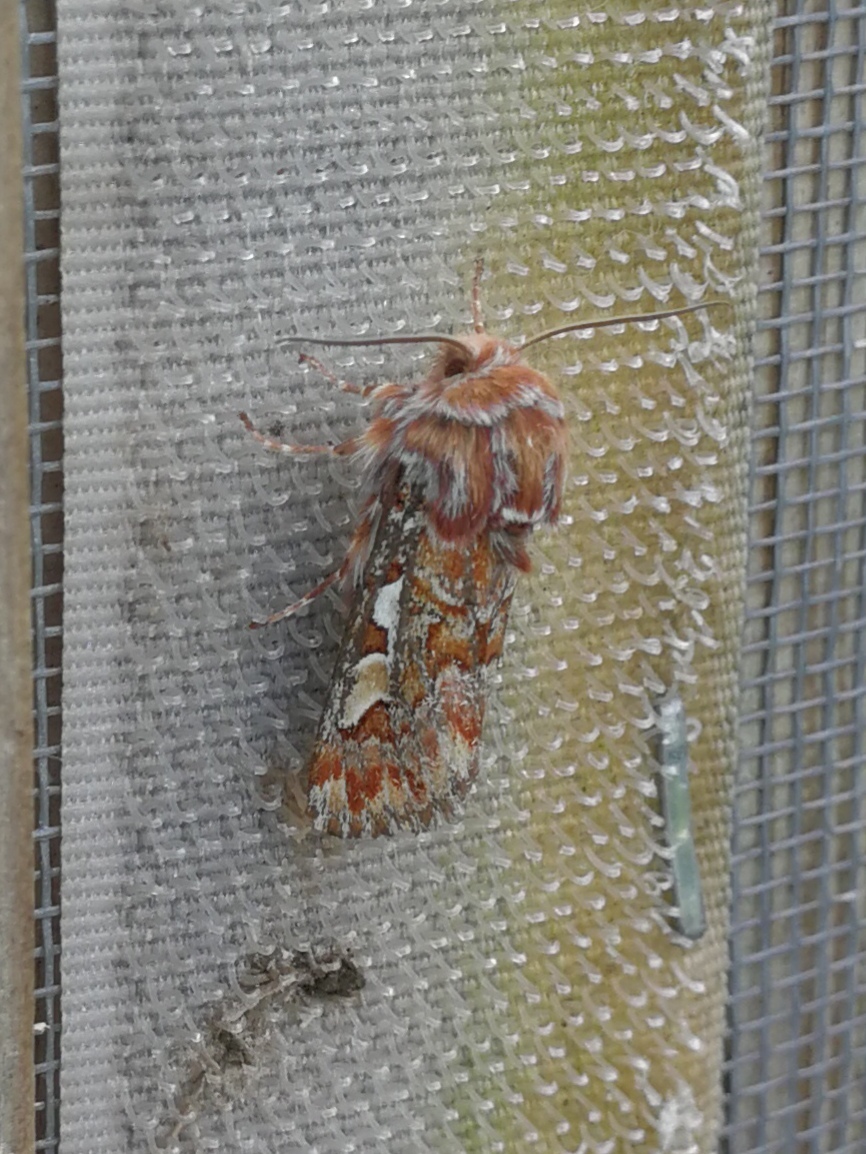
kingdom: Animalia
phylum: Arthropoda
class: Insecta
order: Lepidoptera
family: Noctuidae
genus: Panolis
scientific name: Panolis flammea
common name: Pine beauty
